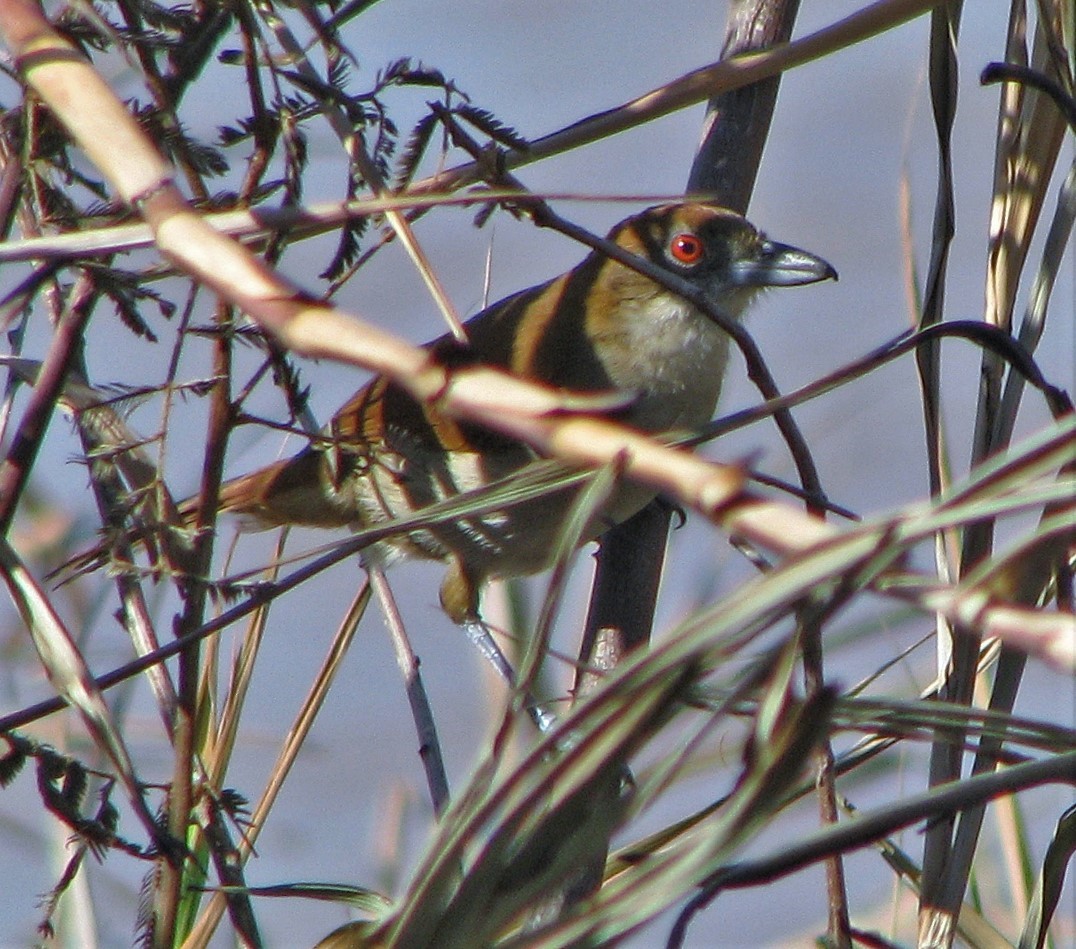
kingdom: Animalia
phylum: Chordata
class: Aves
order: Passeriformes
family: Thamnophilidae
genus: Taraba
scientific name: Taraba major
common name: Great antshrike
